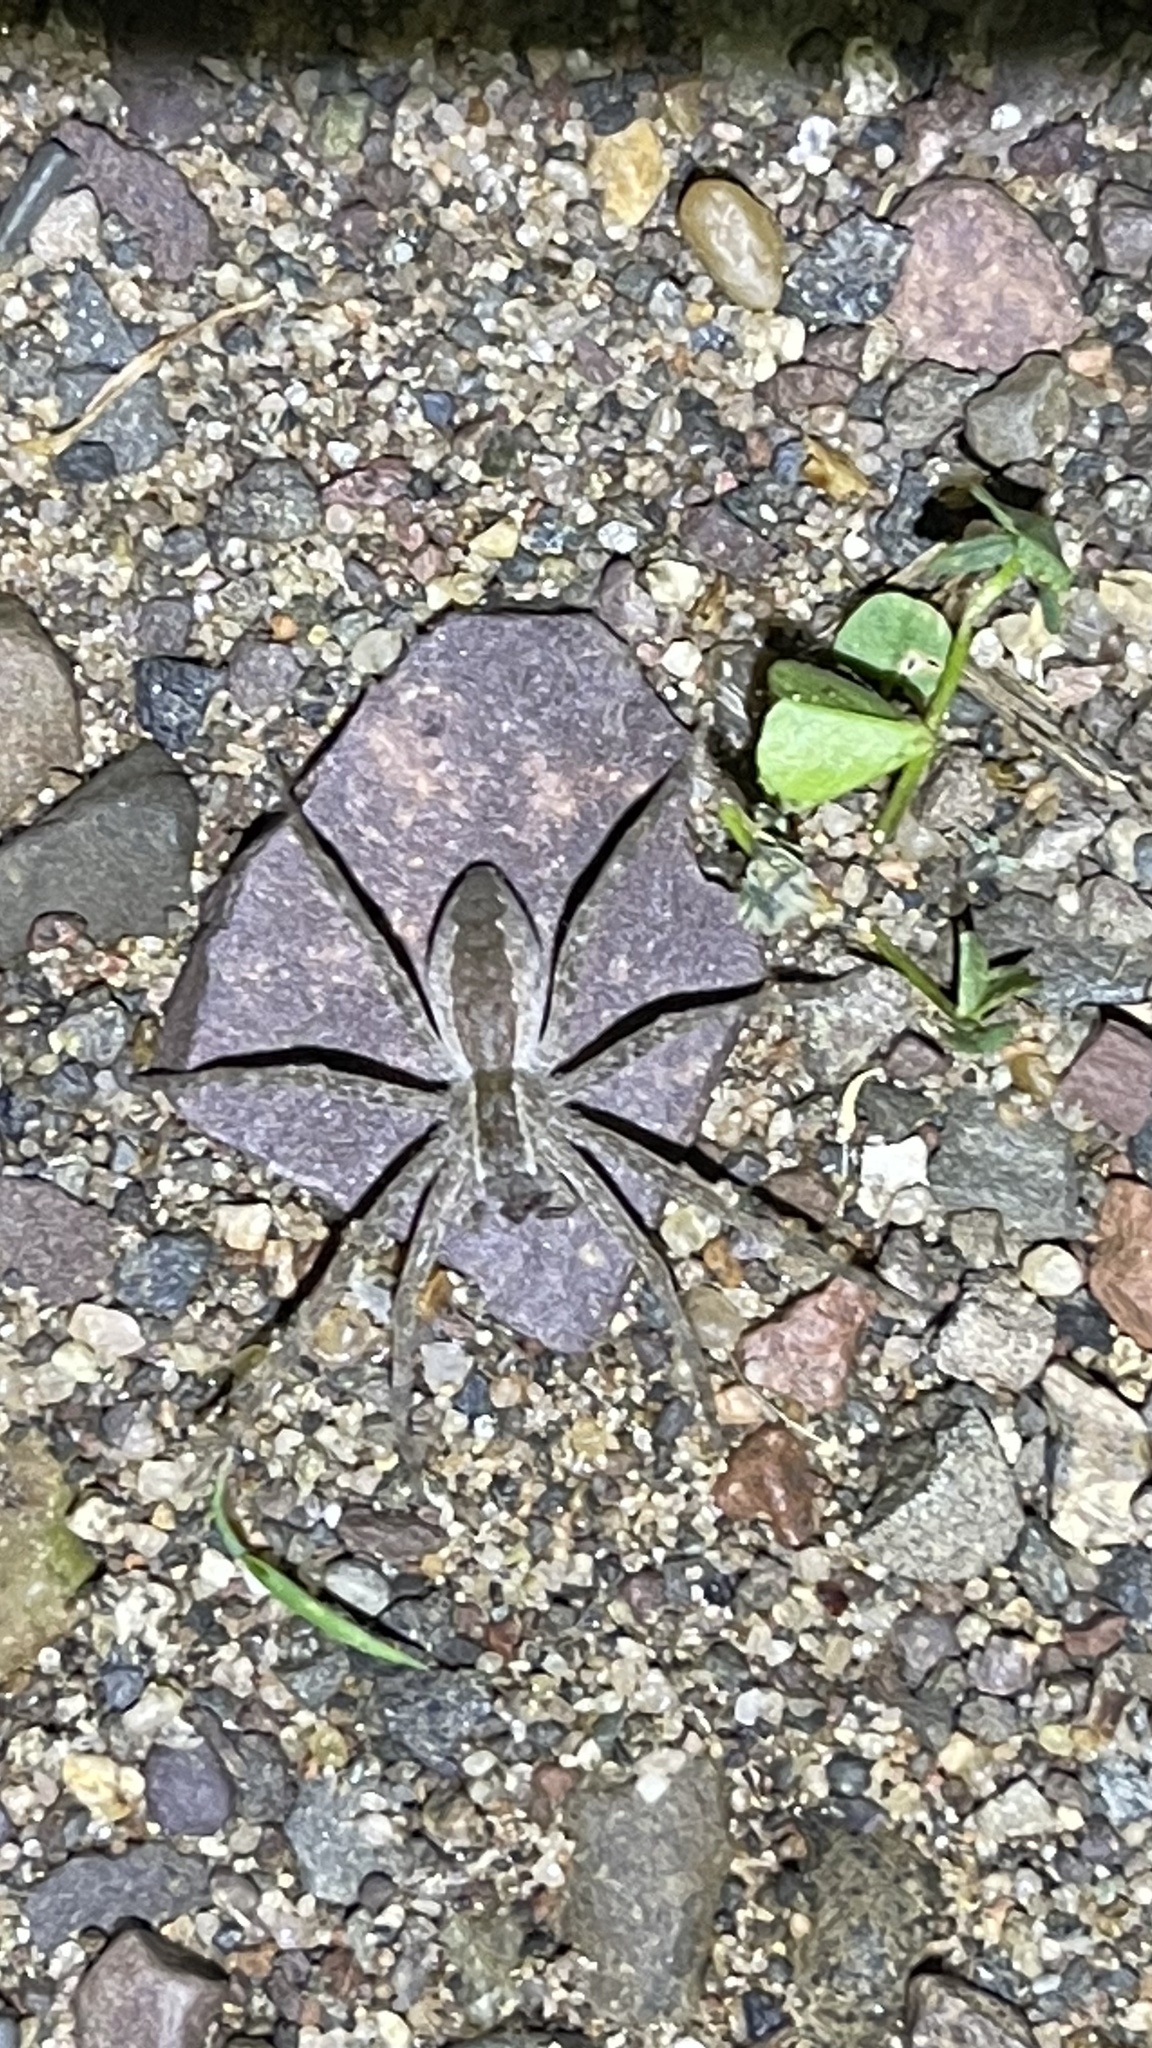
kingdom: Animalia
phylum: Arthropoda
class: Arachnida
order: Araneae
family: Pisauridae
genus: Pisaurina
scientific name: Pisaurina mira
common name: American nursery web spider
